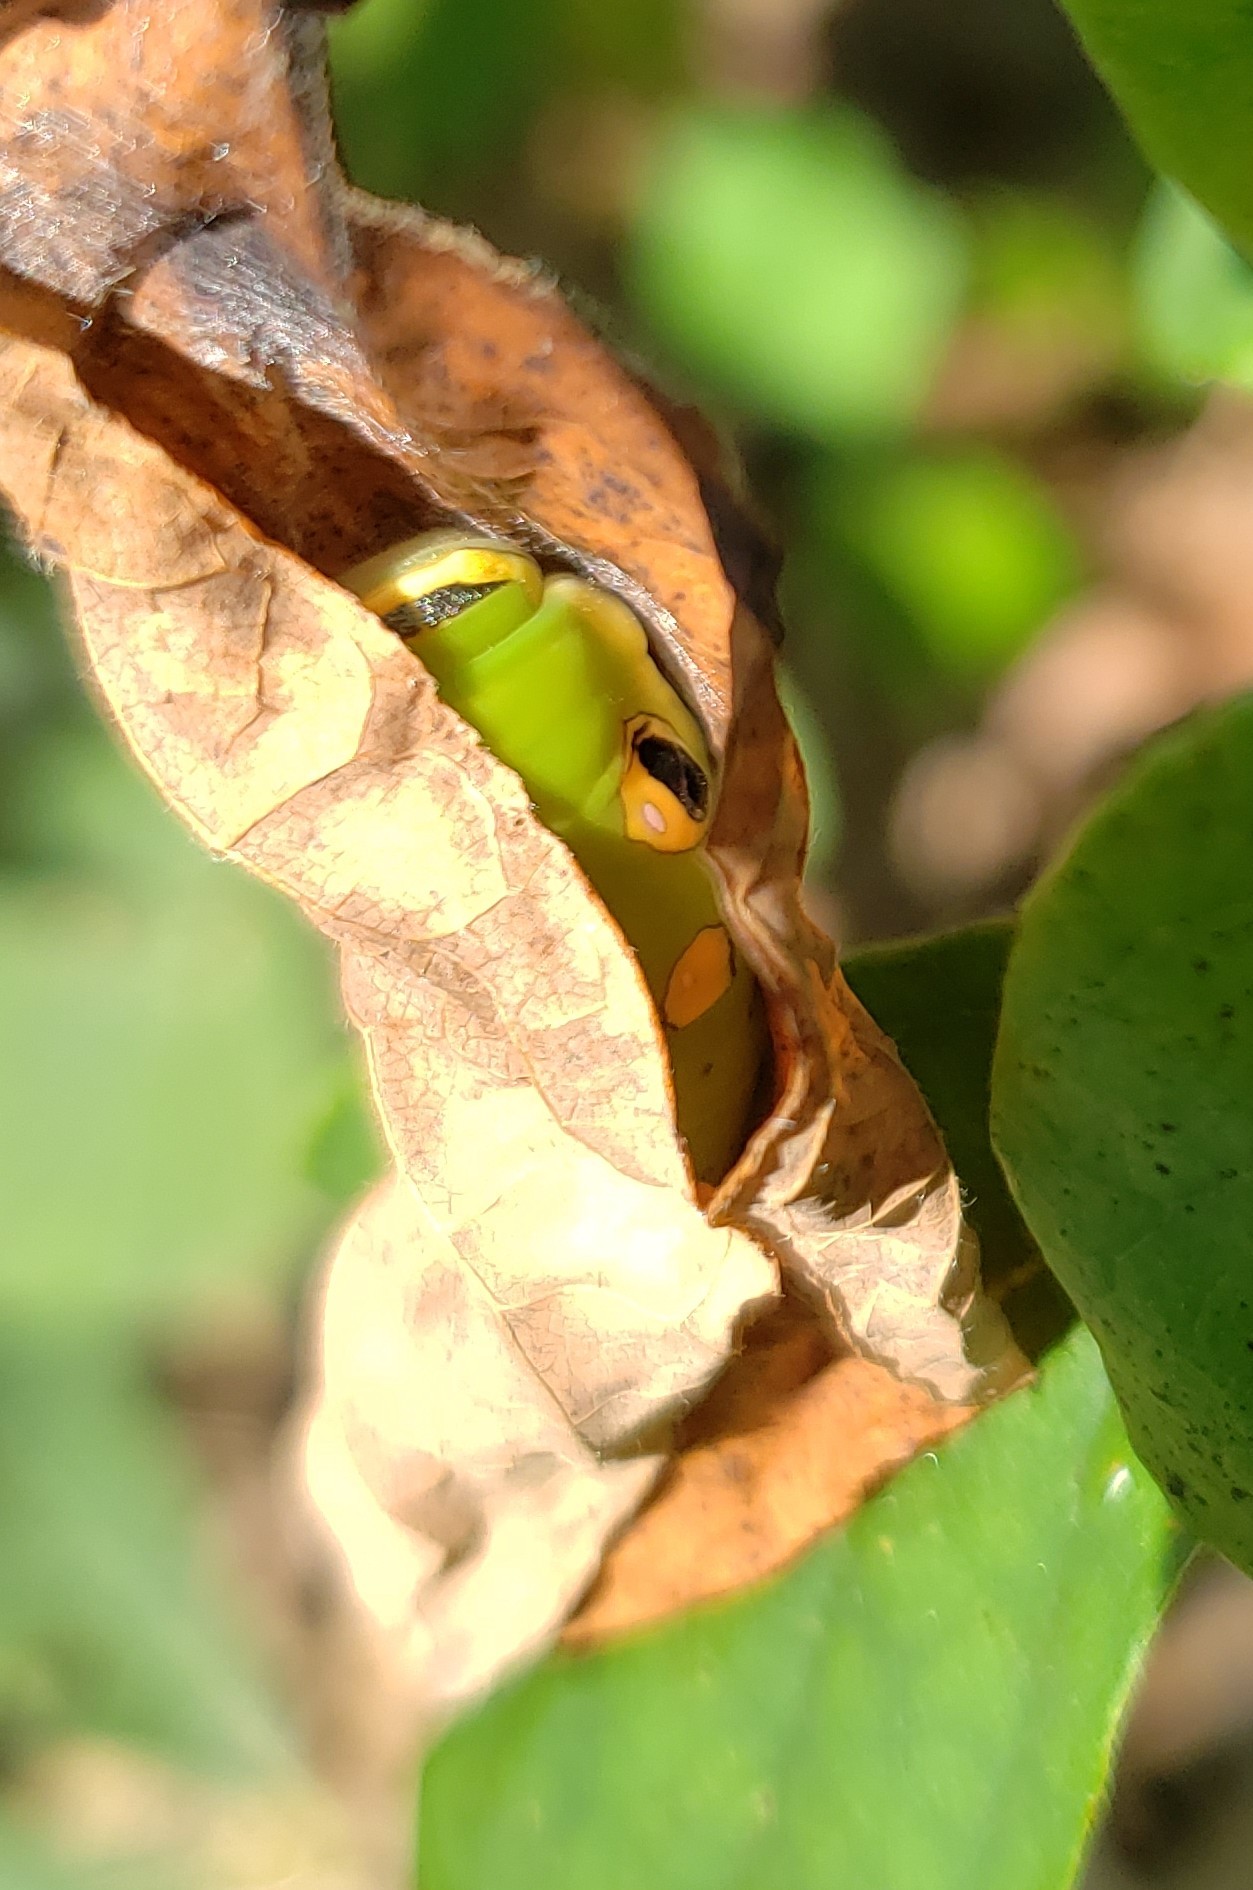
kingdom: Animalia
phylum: Arthropoda
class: Insecta
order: Lepidoptera
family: Papilionidae
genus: Papilio
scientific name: Papilio troilus
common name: Spicebush swallowtail
